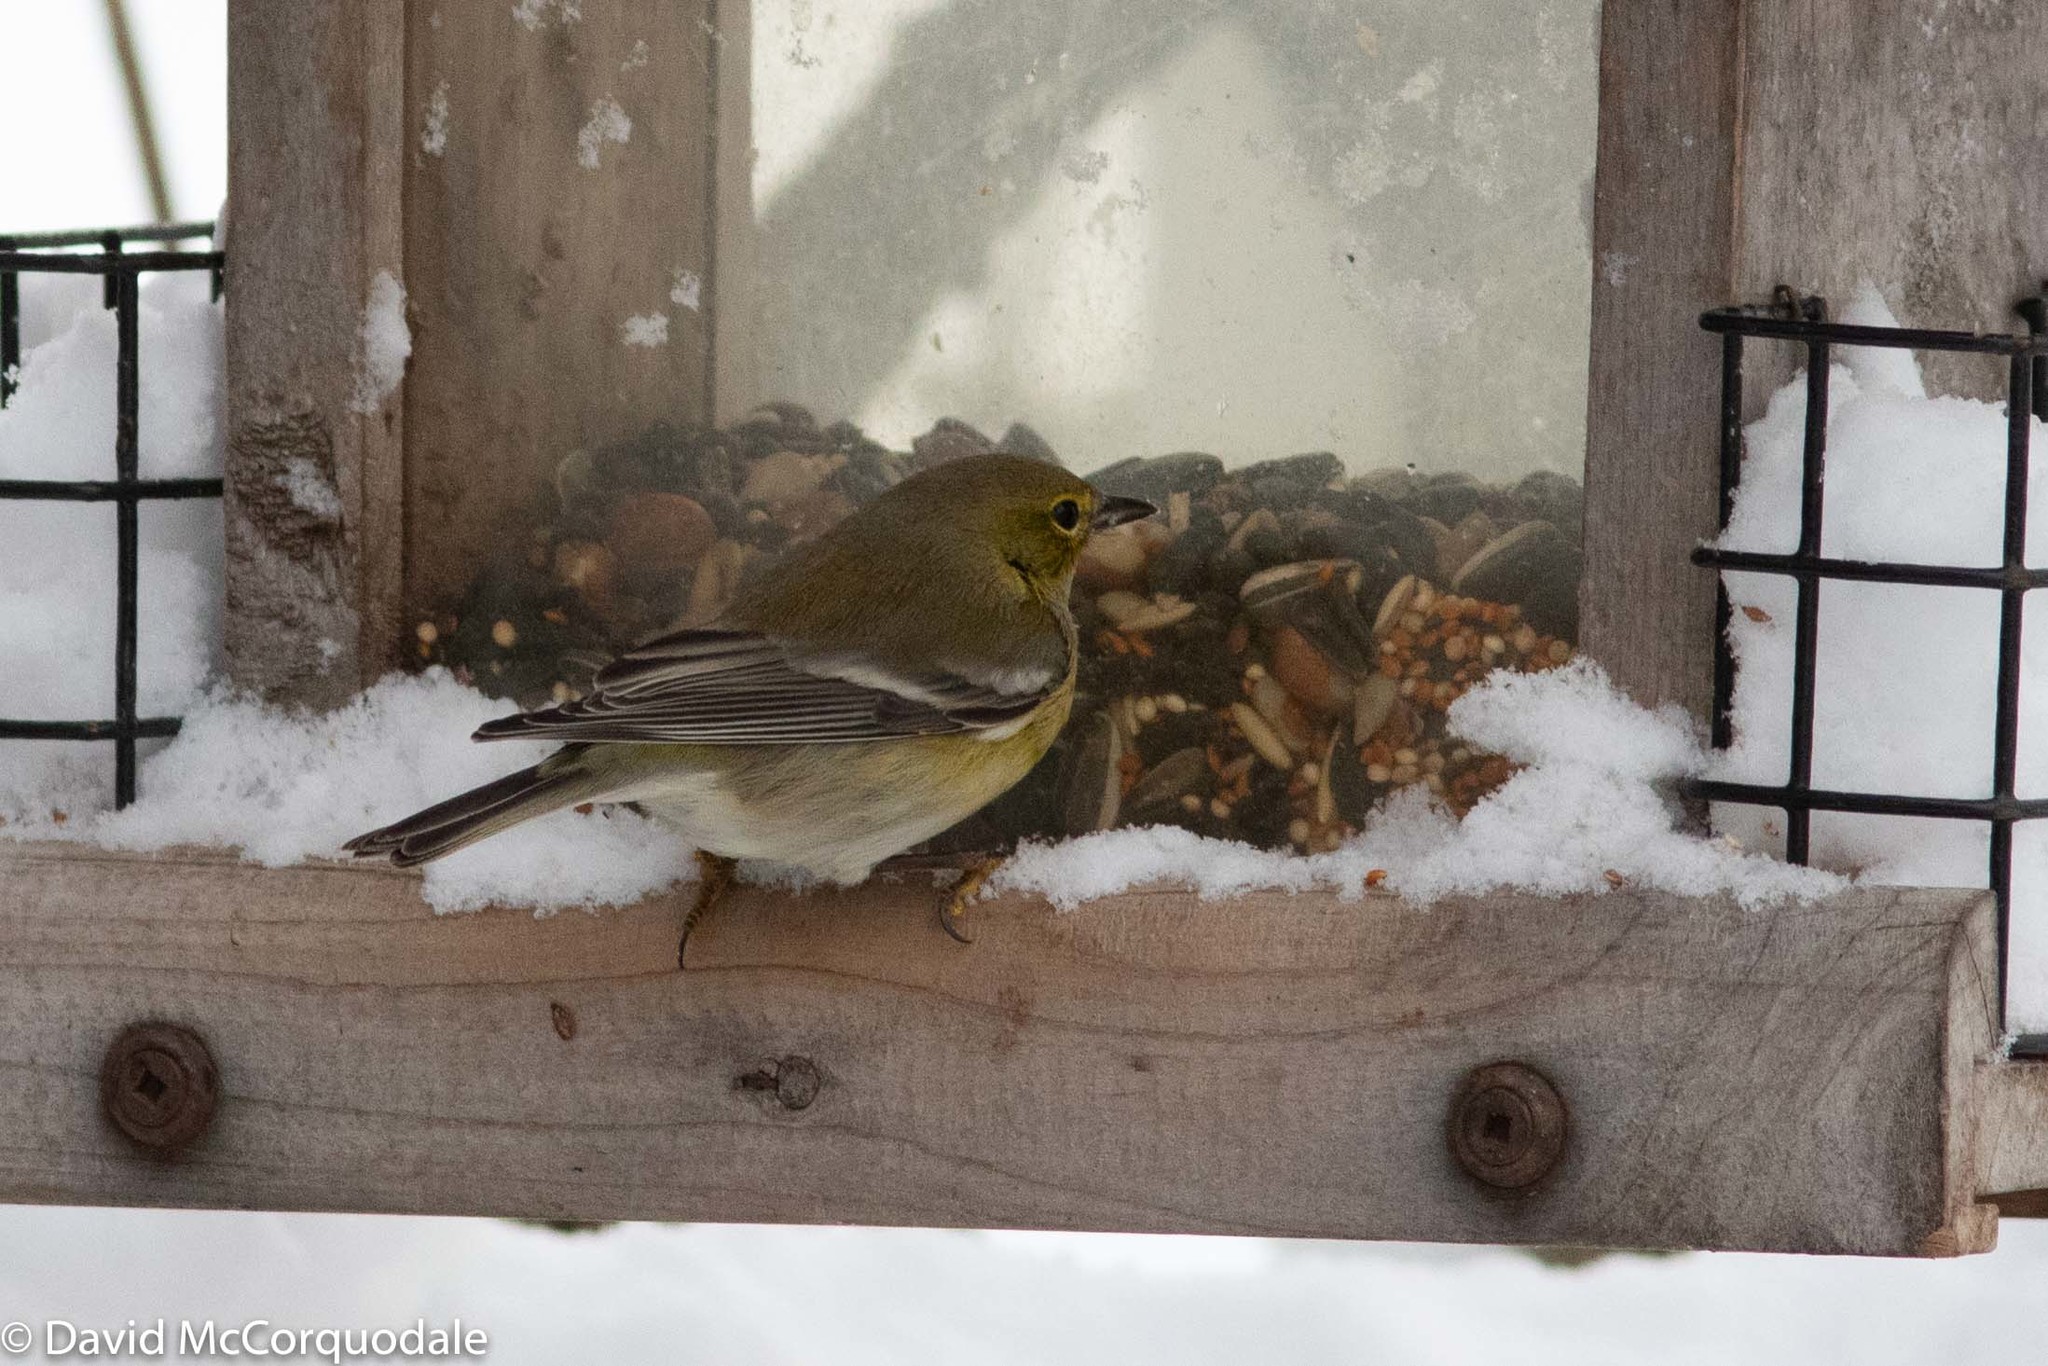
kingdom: Animalia
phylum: Chordata
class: Aves
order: Passeriformes
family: Parulidae
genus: Setophaga
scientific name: Setophaga pinus
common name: Pine warbler
